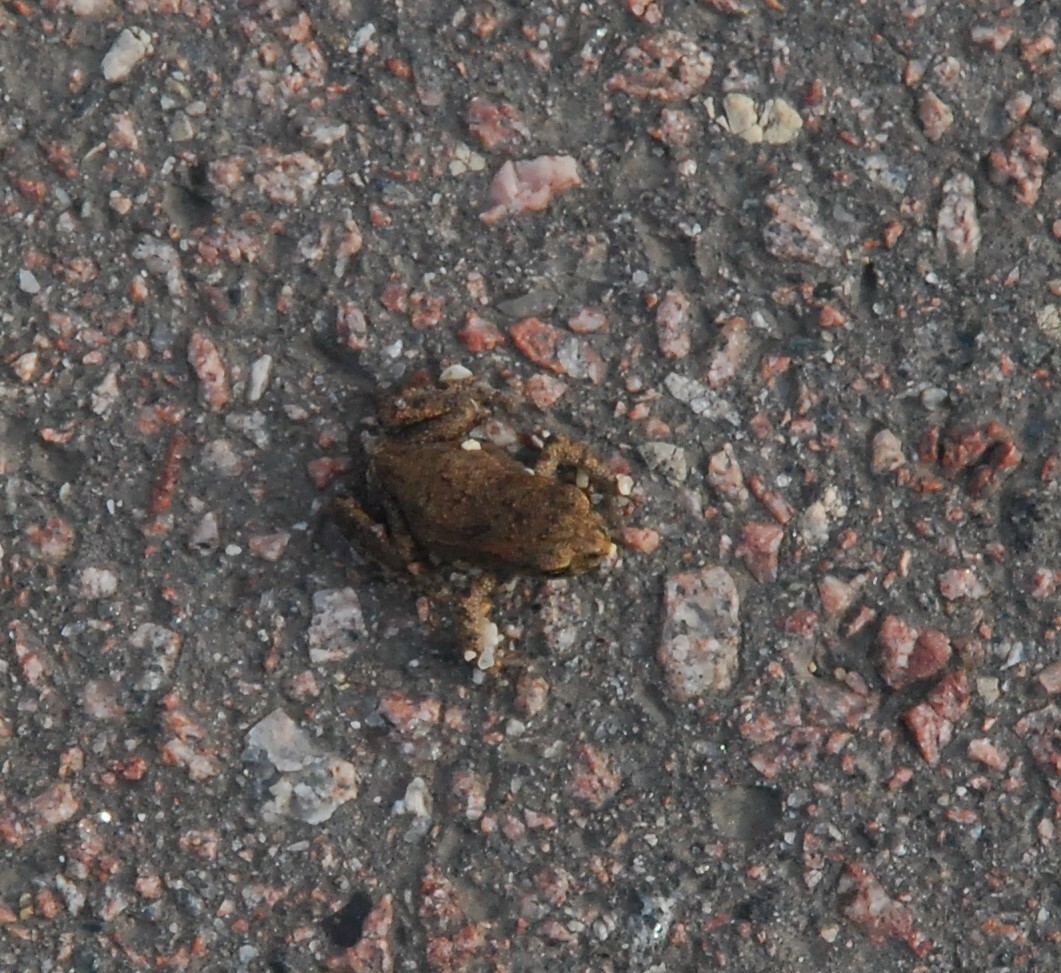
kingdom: Animalia
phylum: Chordata
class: Amphibia
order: Anura
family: Bufonidae
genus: Bufo
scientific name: Bufo bufo
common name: Common toad
